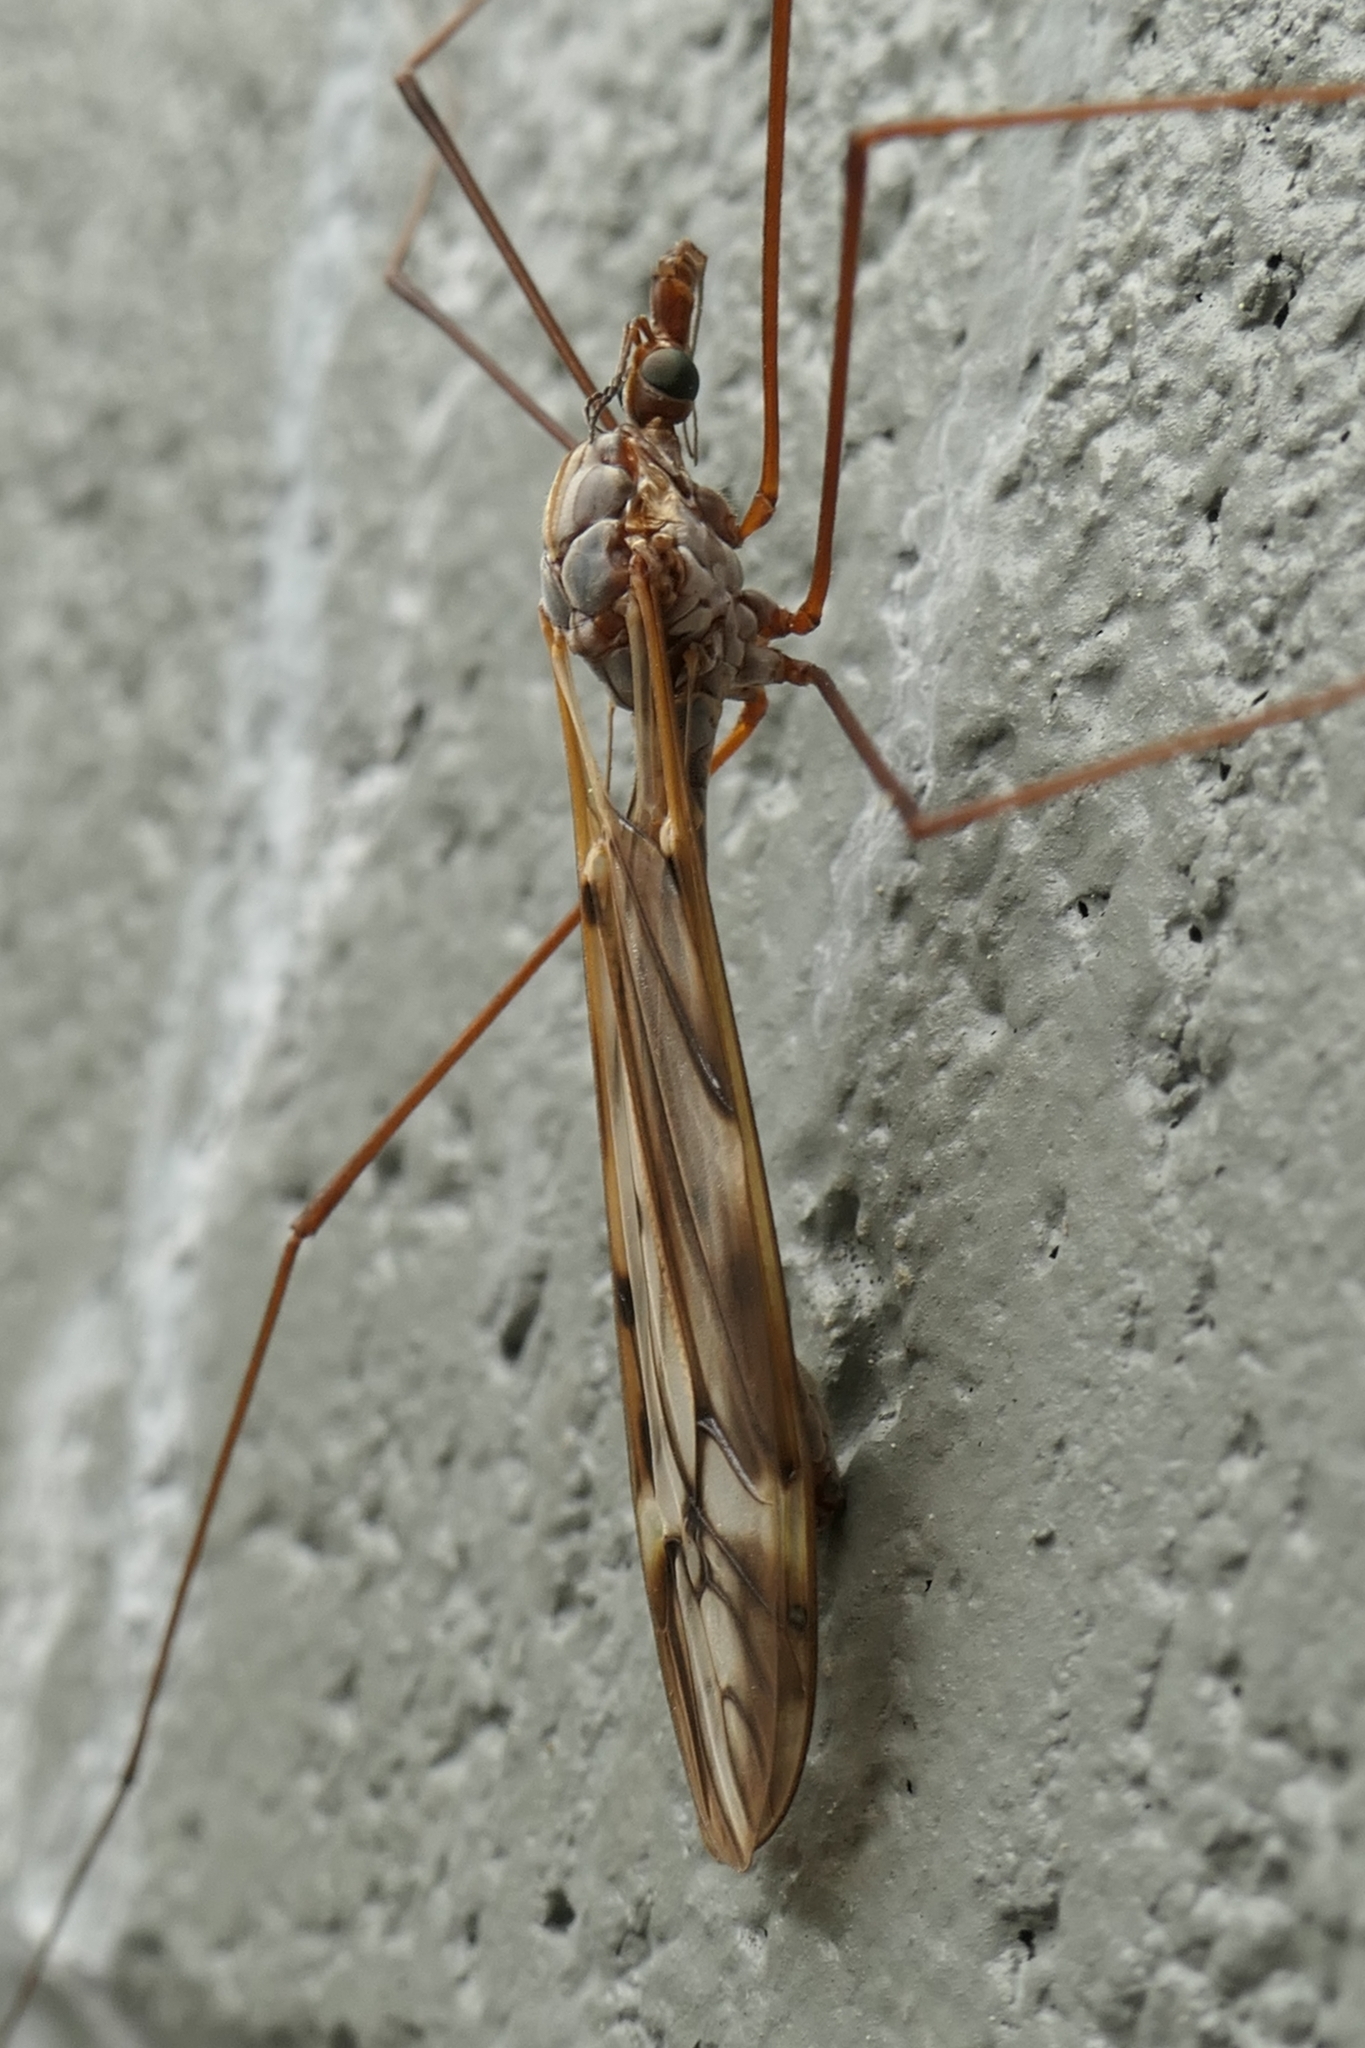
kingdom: Animalia
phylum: Arthropoda
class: Insecta
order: Diptera
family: Tipulidae
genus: Zelandotipula
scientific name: Zelandotipula novarae
